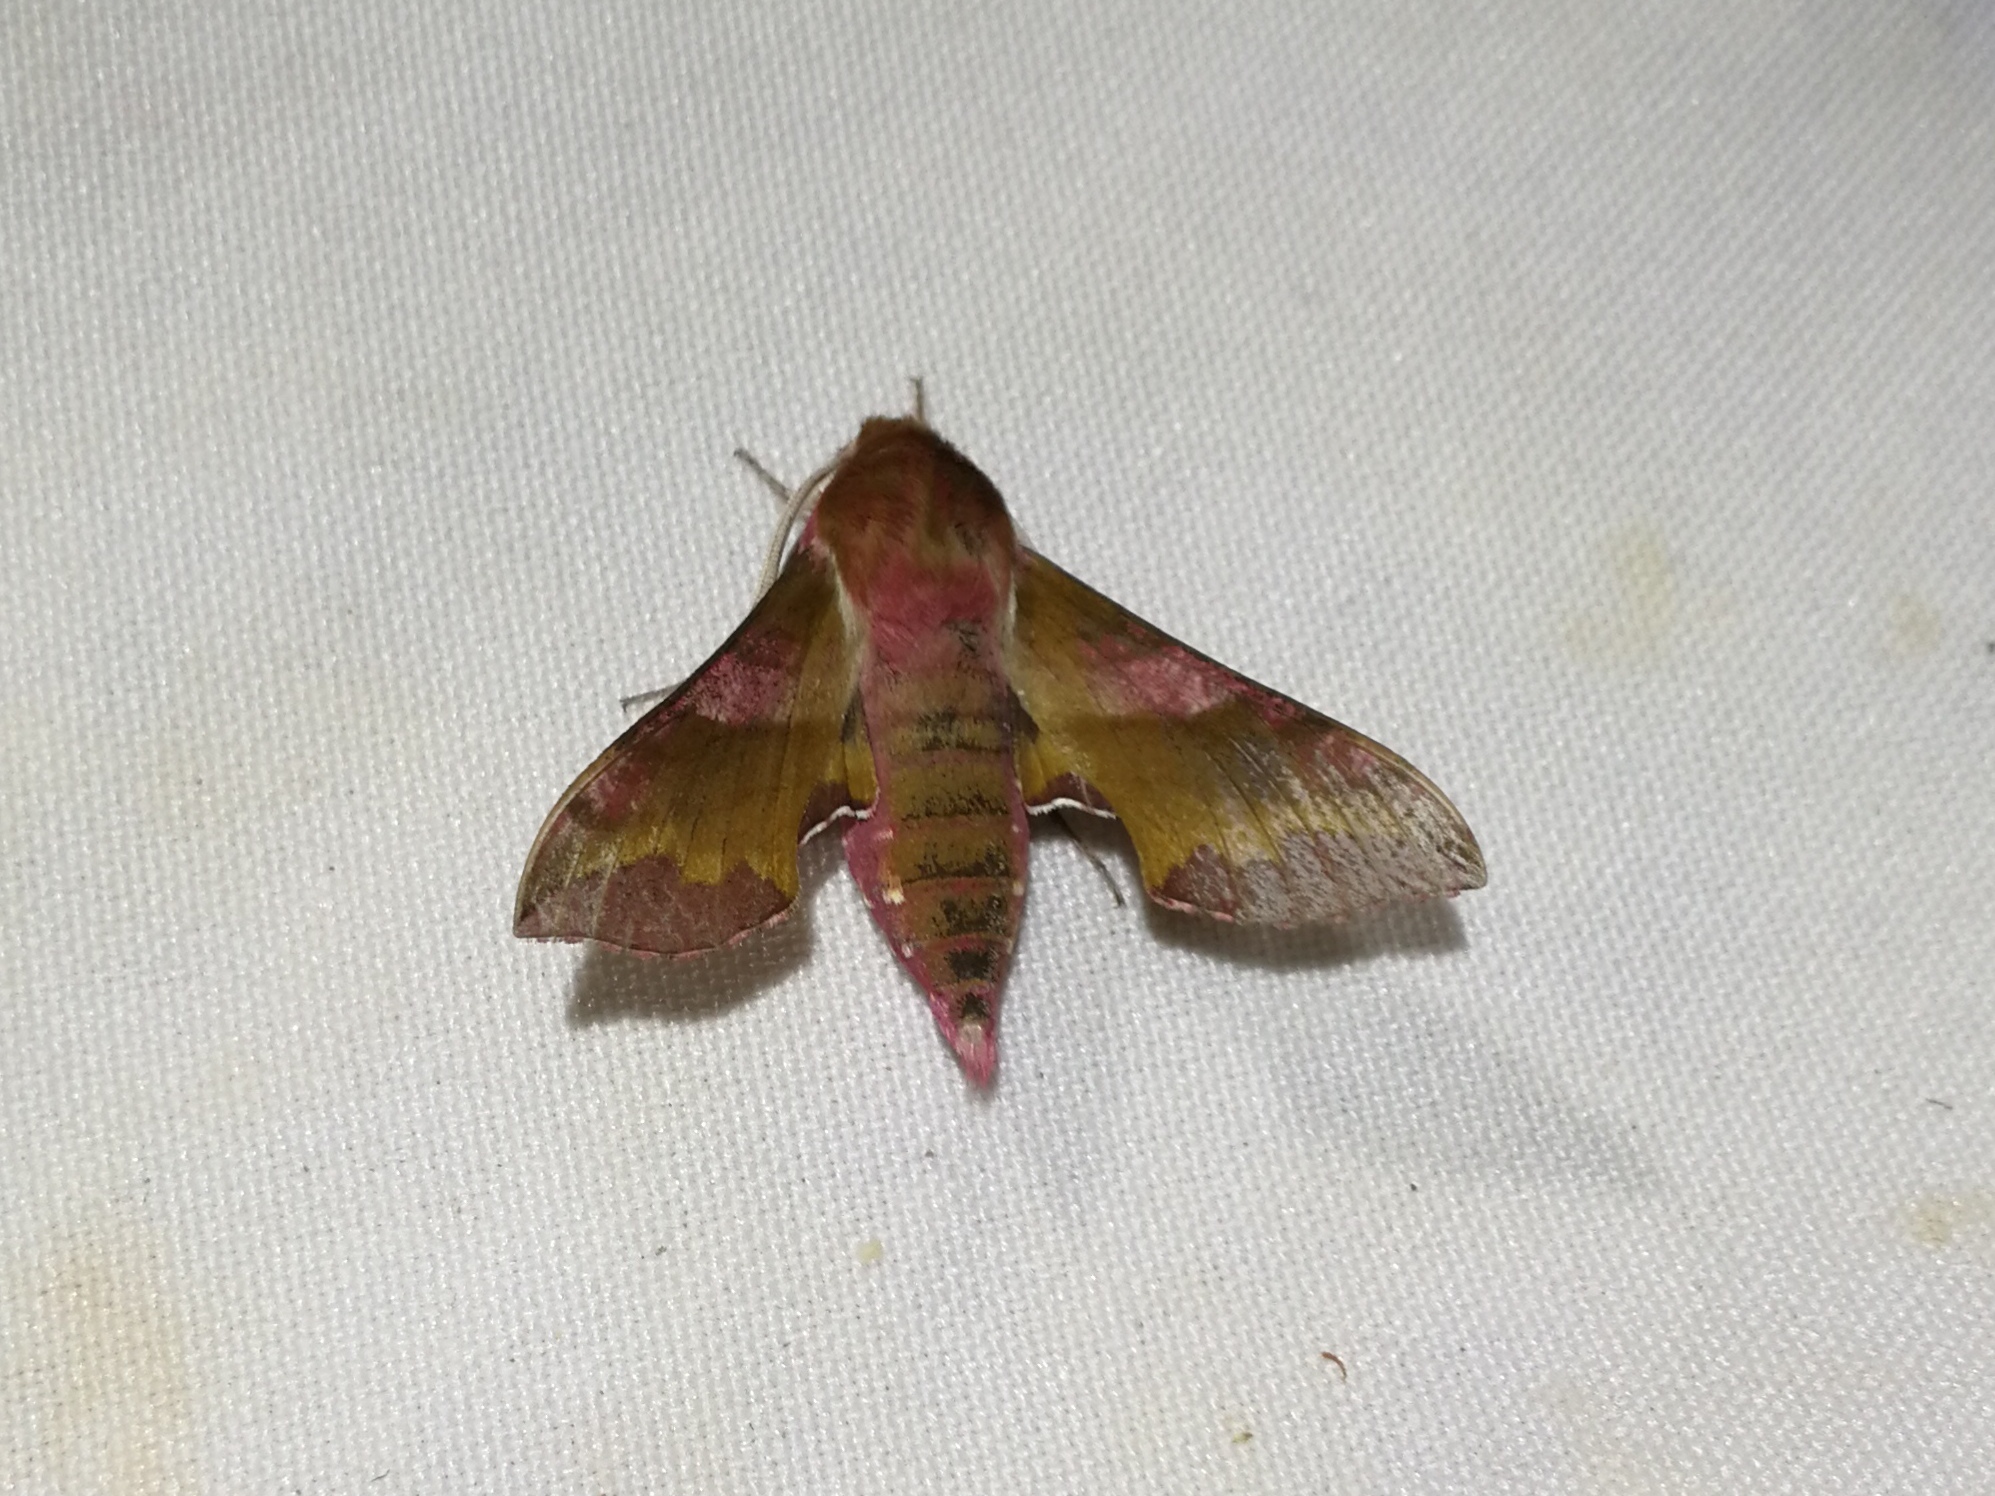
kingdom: Animalia
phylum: Arthropoda
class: Insecta
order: Lepidoptera
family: Sphingidae
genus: Deilephila
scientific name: Deilephila porcellus
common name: Small elephant hawk-moth
